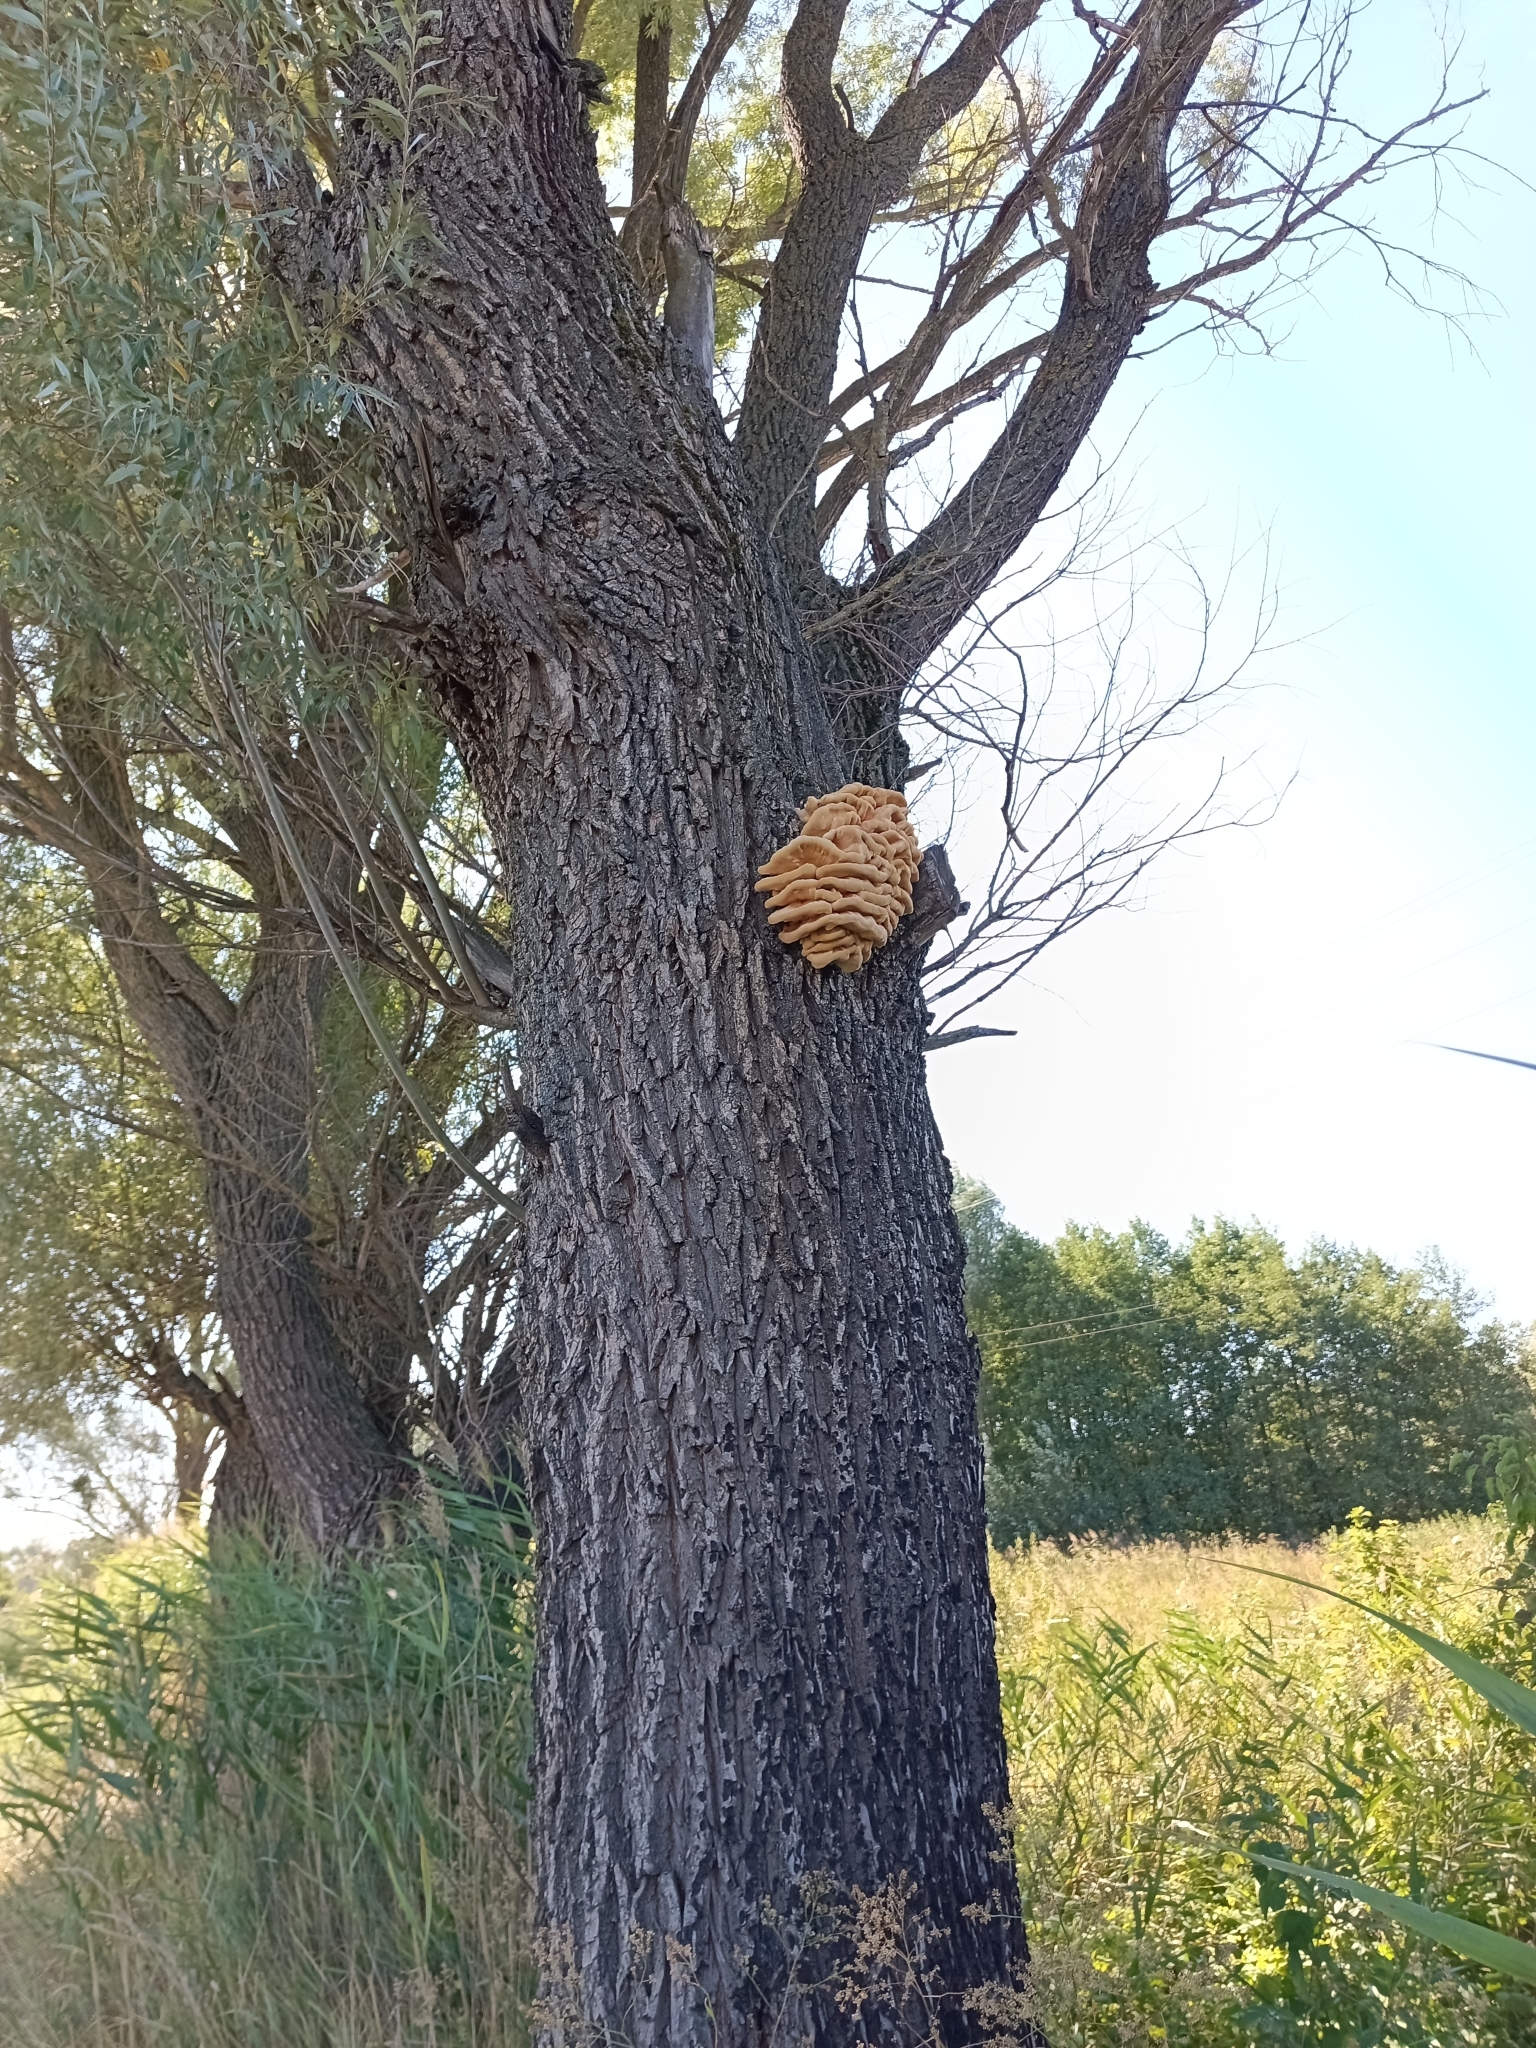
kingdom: Fungi
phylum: Basidiomycota
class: Agaricomycetes
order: Polyporales
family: Laetiporaceae
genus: Laetiporus
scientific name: Laetiporus sulphureus
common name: Chicken of the woods
